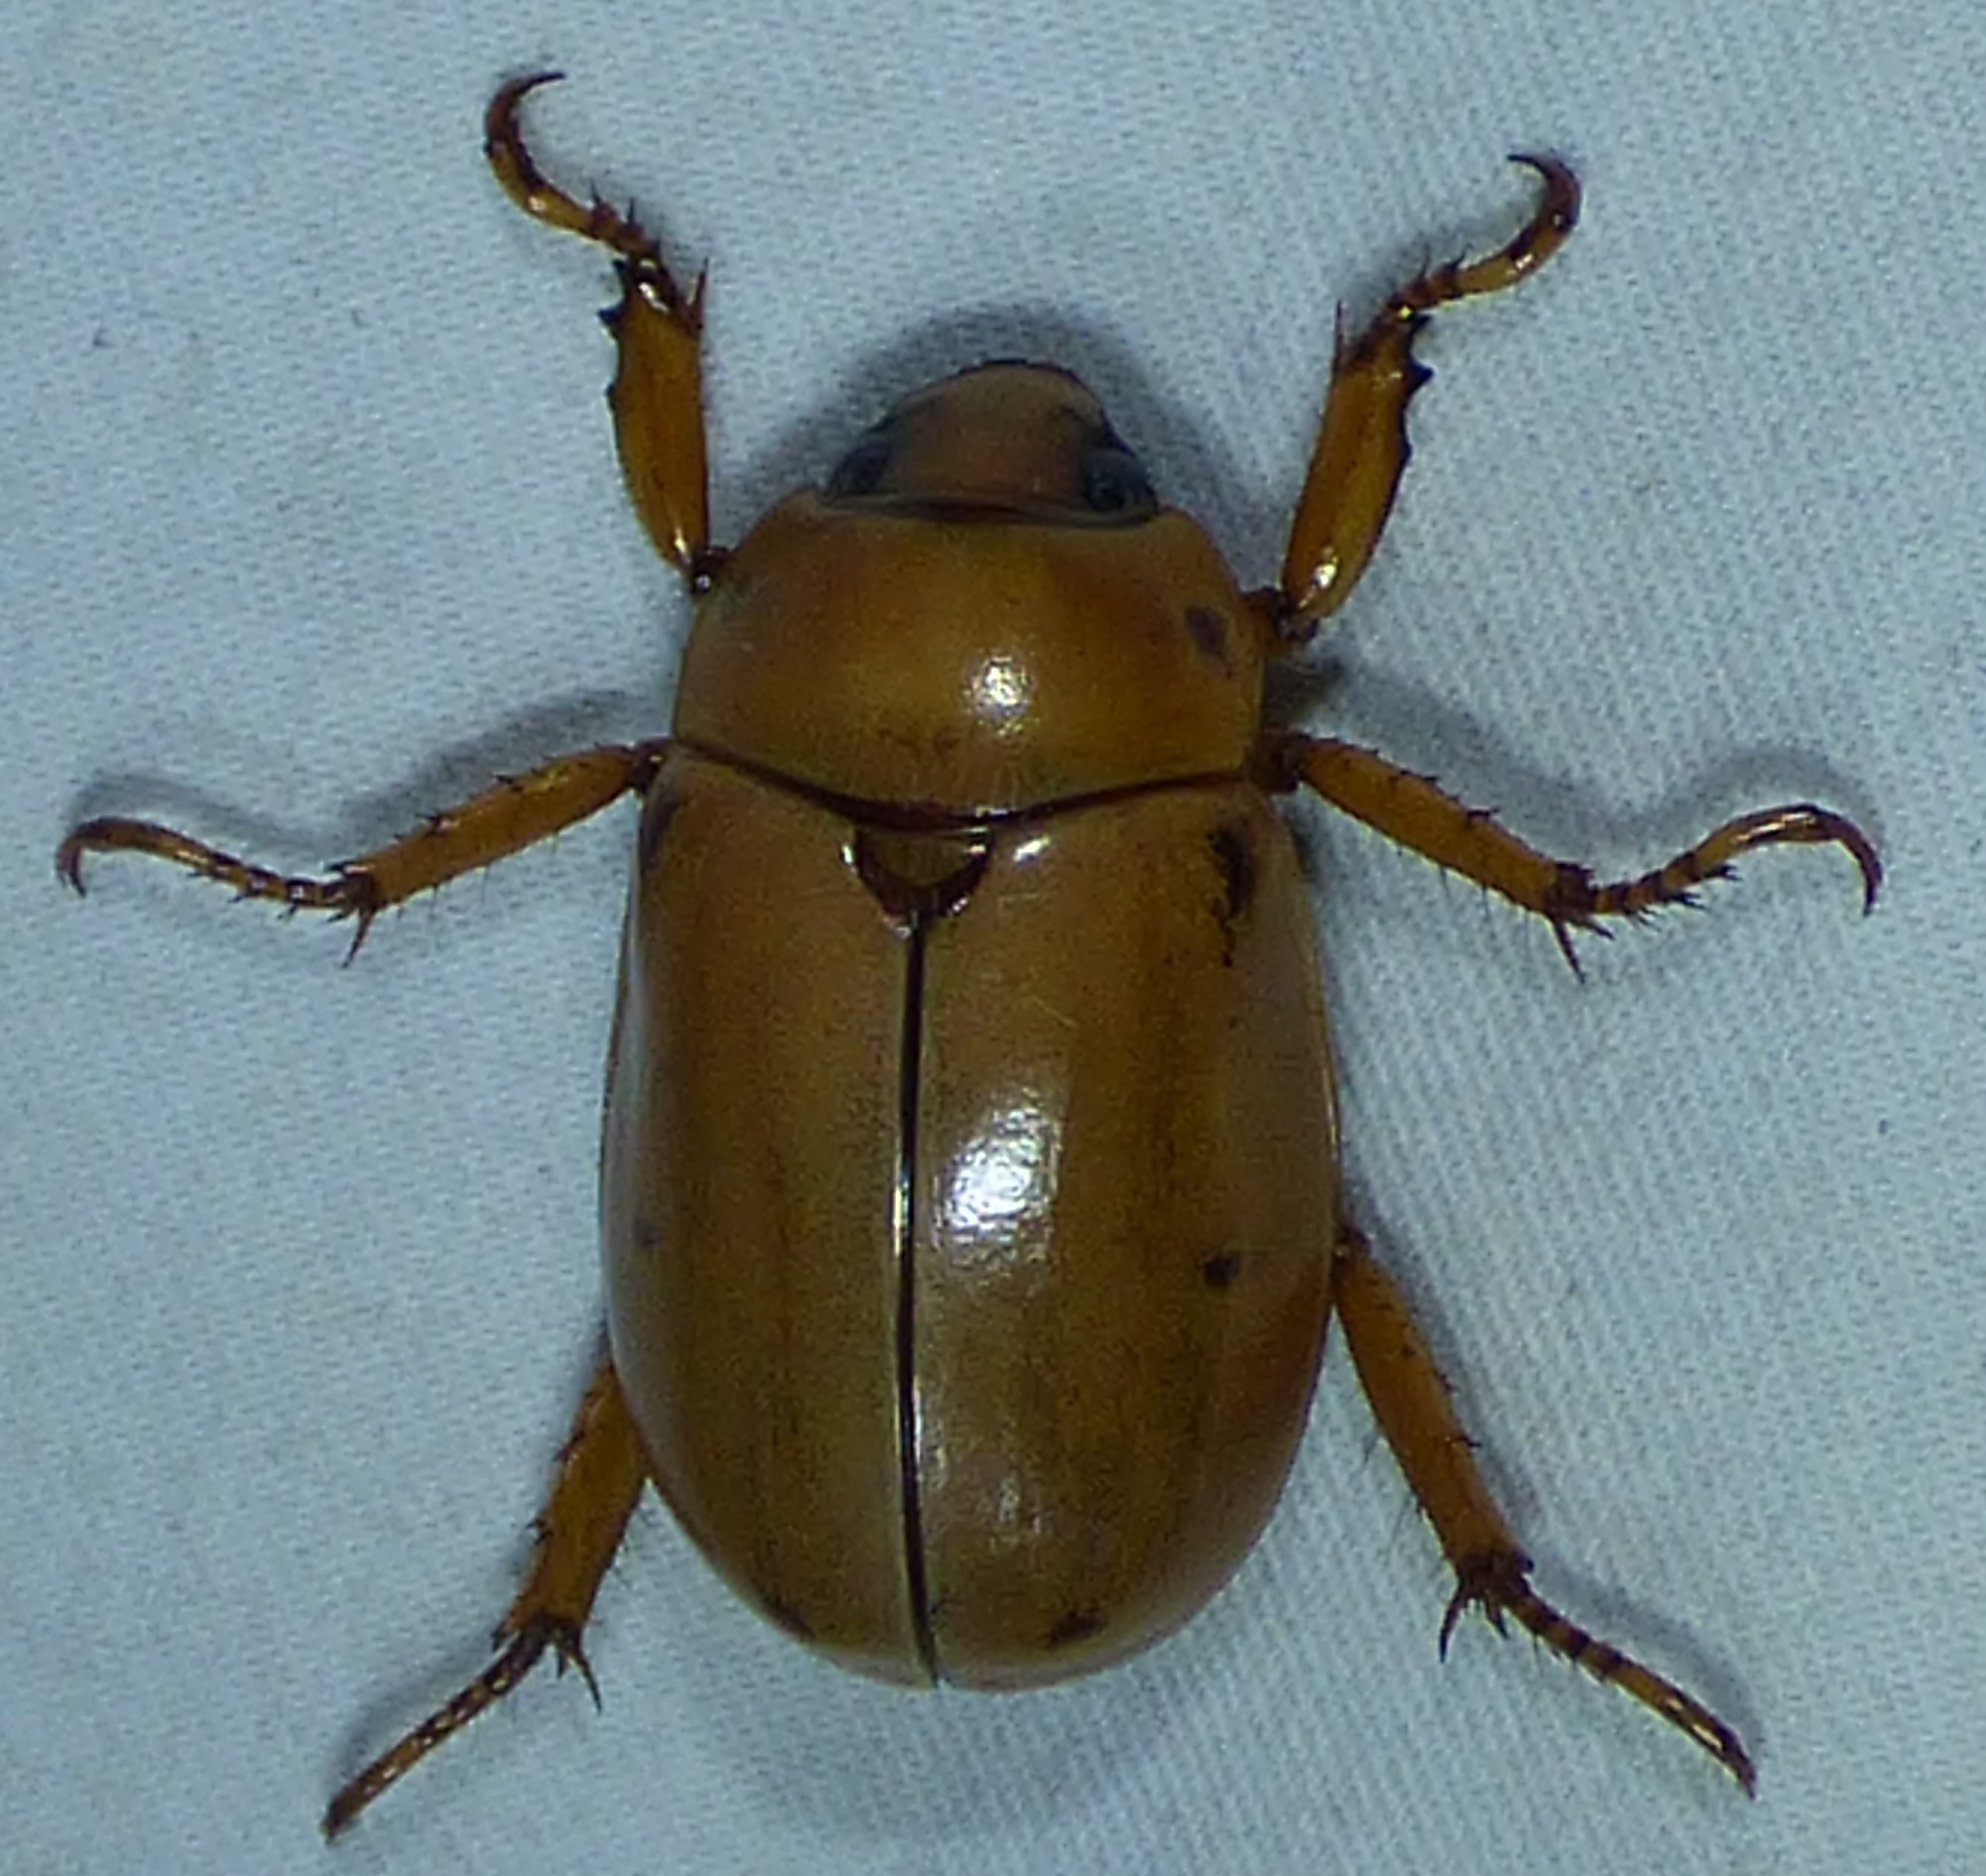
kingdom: Animalia
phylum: Arthropoda
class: Insecta
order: Coleoptera
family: Scarabaeidae
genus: Pelidnota
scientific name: Pelidnota punctata
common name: Grapevine beetle
